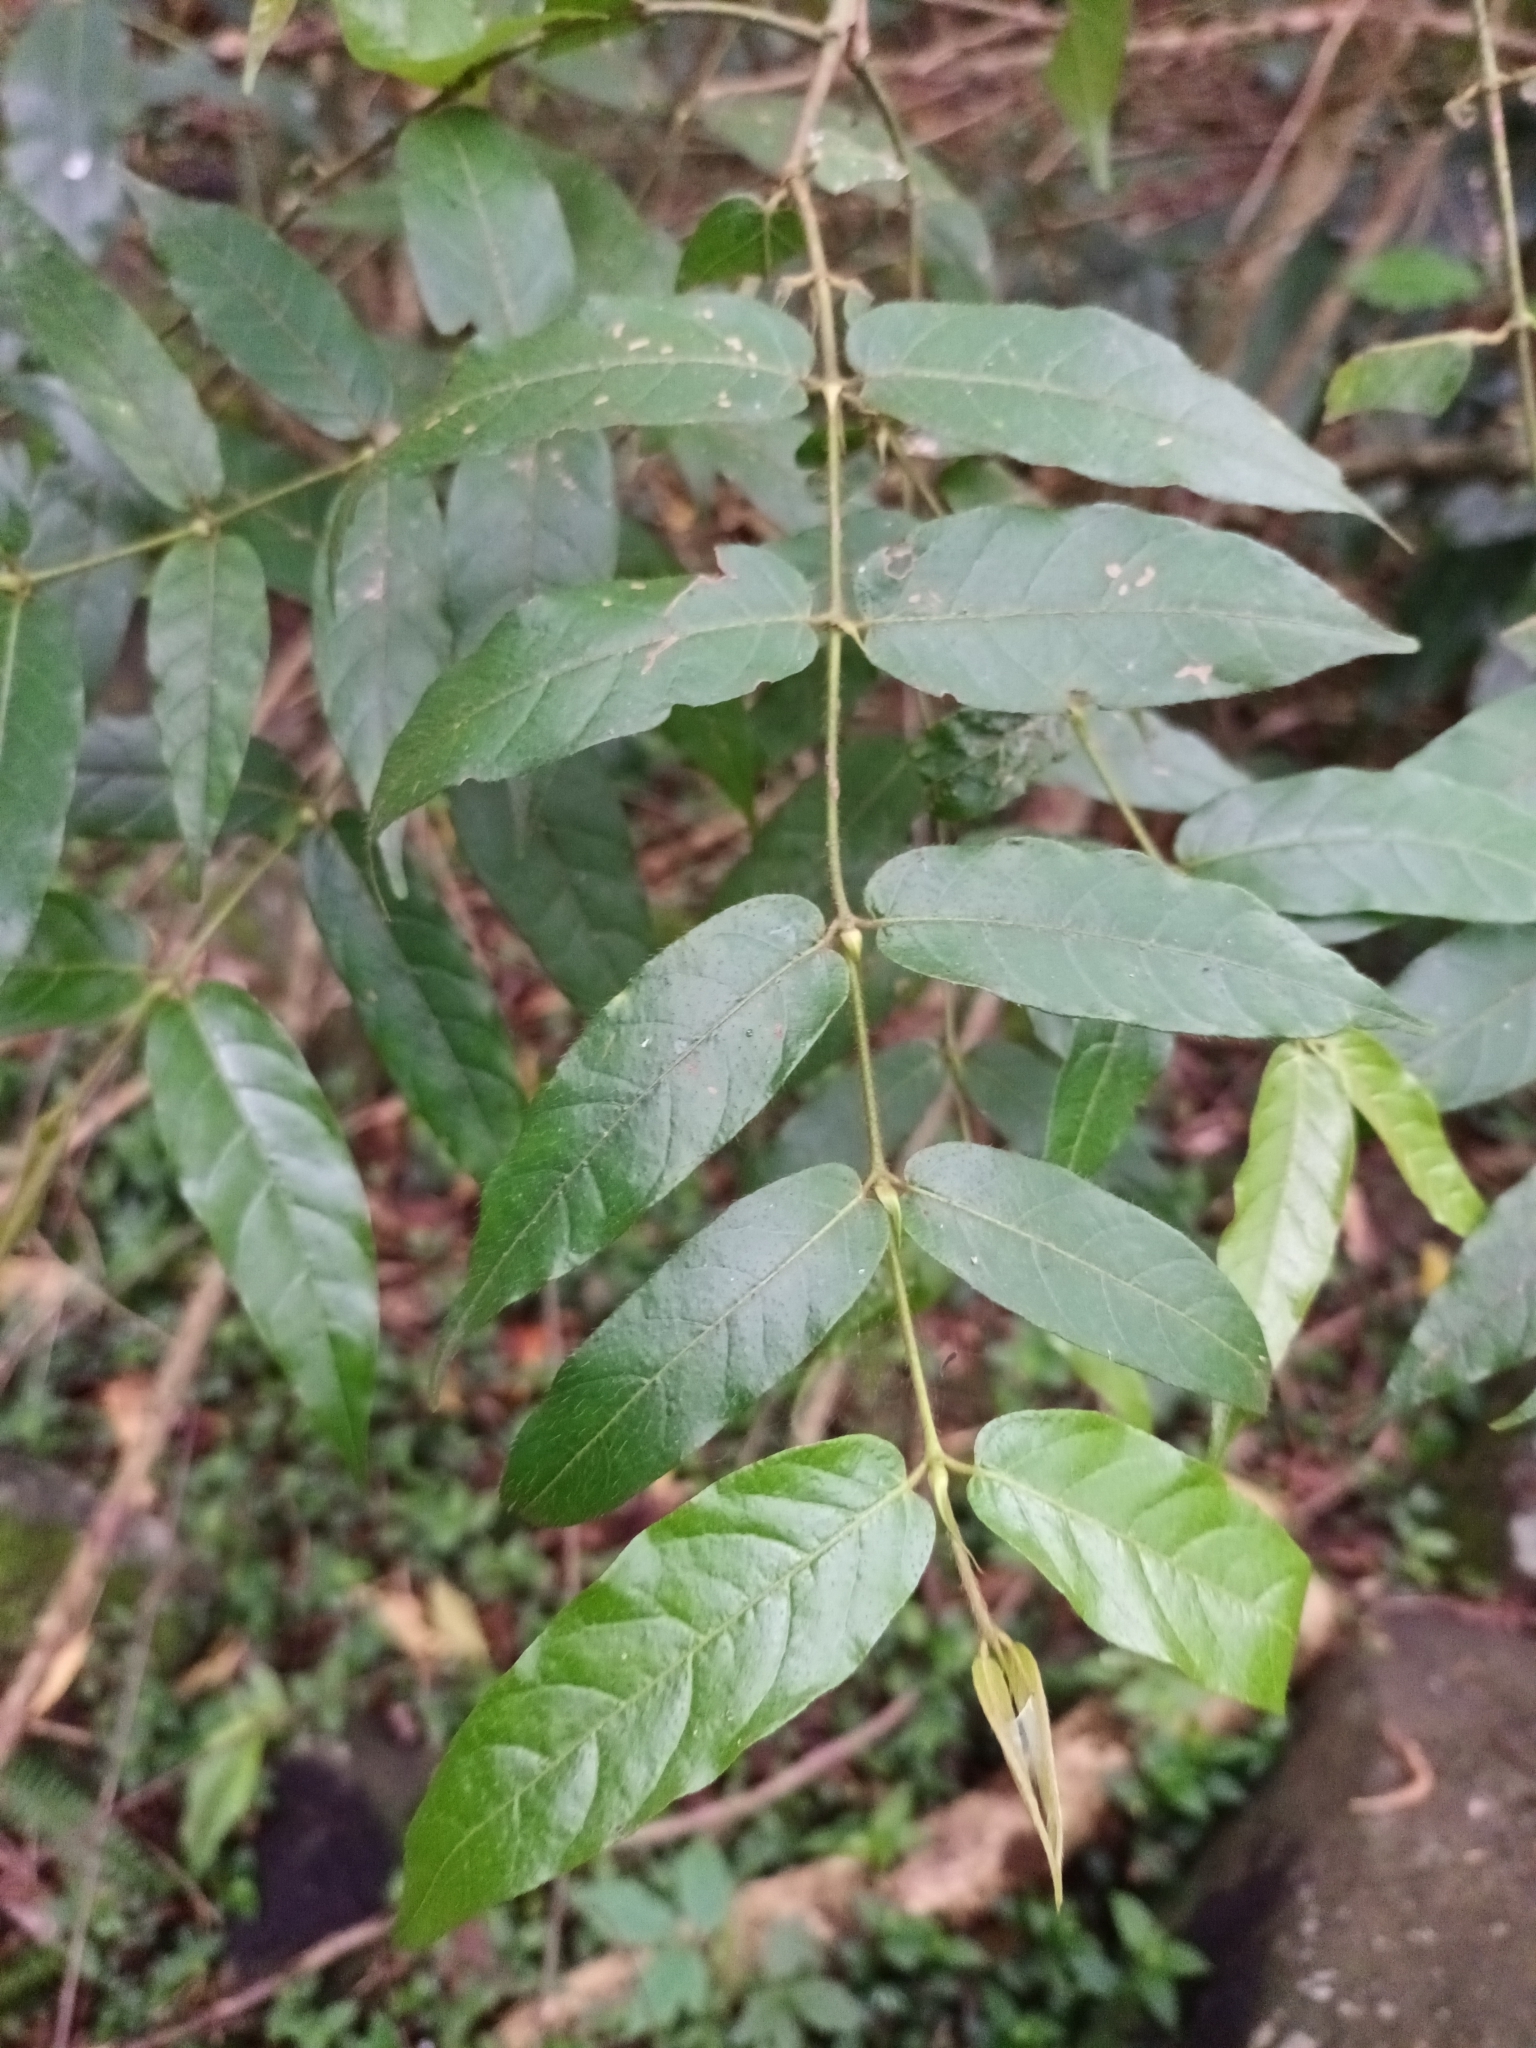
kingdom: Plantae
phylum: Tracheophyta
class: Magnoliopsida
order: Gentianales
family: Rubiaceae
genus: Keetia
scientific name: Keetia gueinzii
